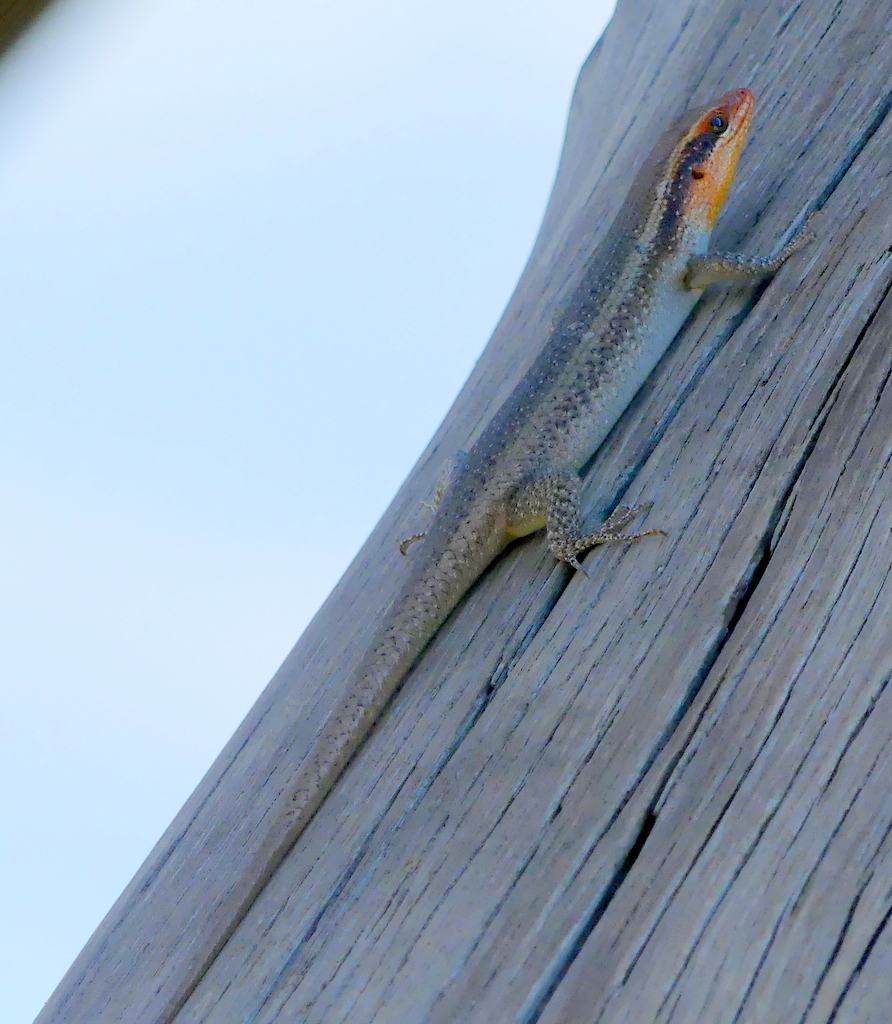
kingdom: Animalia
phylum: Chordata
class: Squamata
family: Scincidae
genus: Trachylepis
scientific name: Trachylepis wahlbergii
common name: Wahlberg’s striped skink
